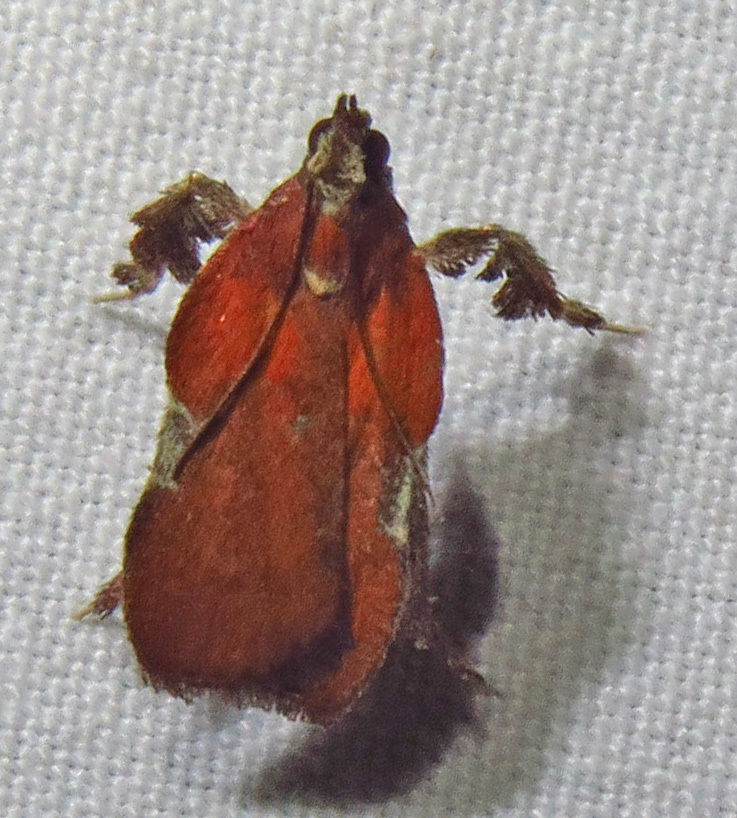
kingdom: Animalia
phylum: Arthropoda
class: Insecta
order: Lepidoptera
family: Pyralidae
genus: Galasa
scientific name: Galasa nigrinodis
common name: Boxwood leaftier moth
